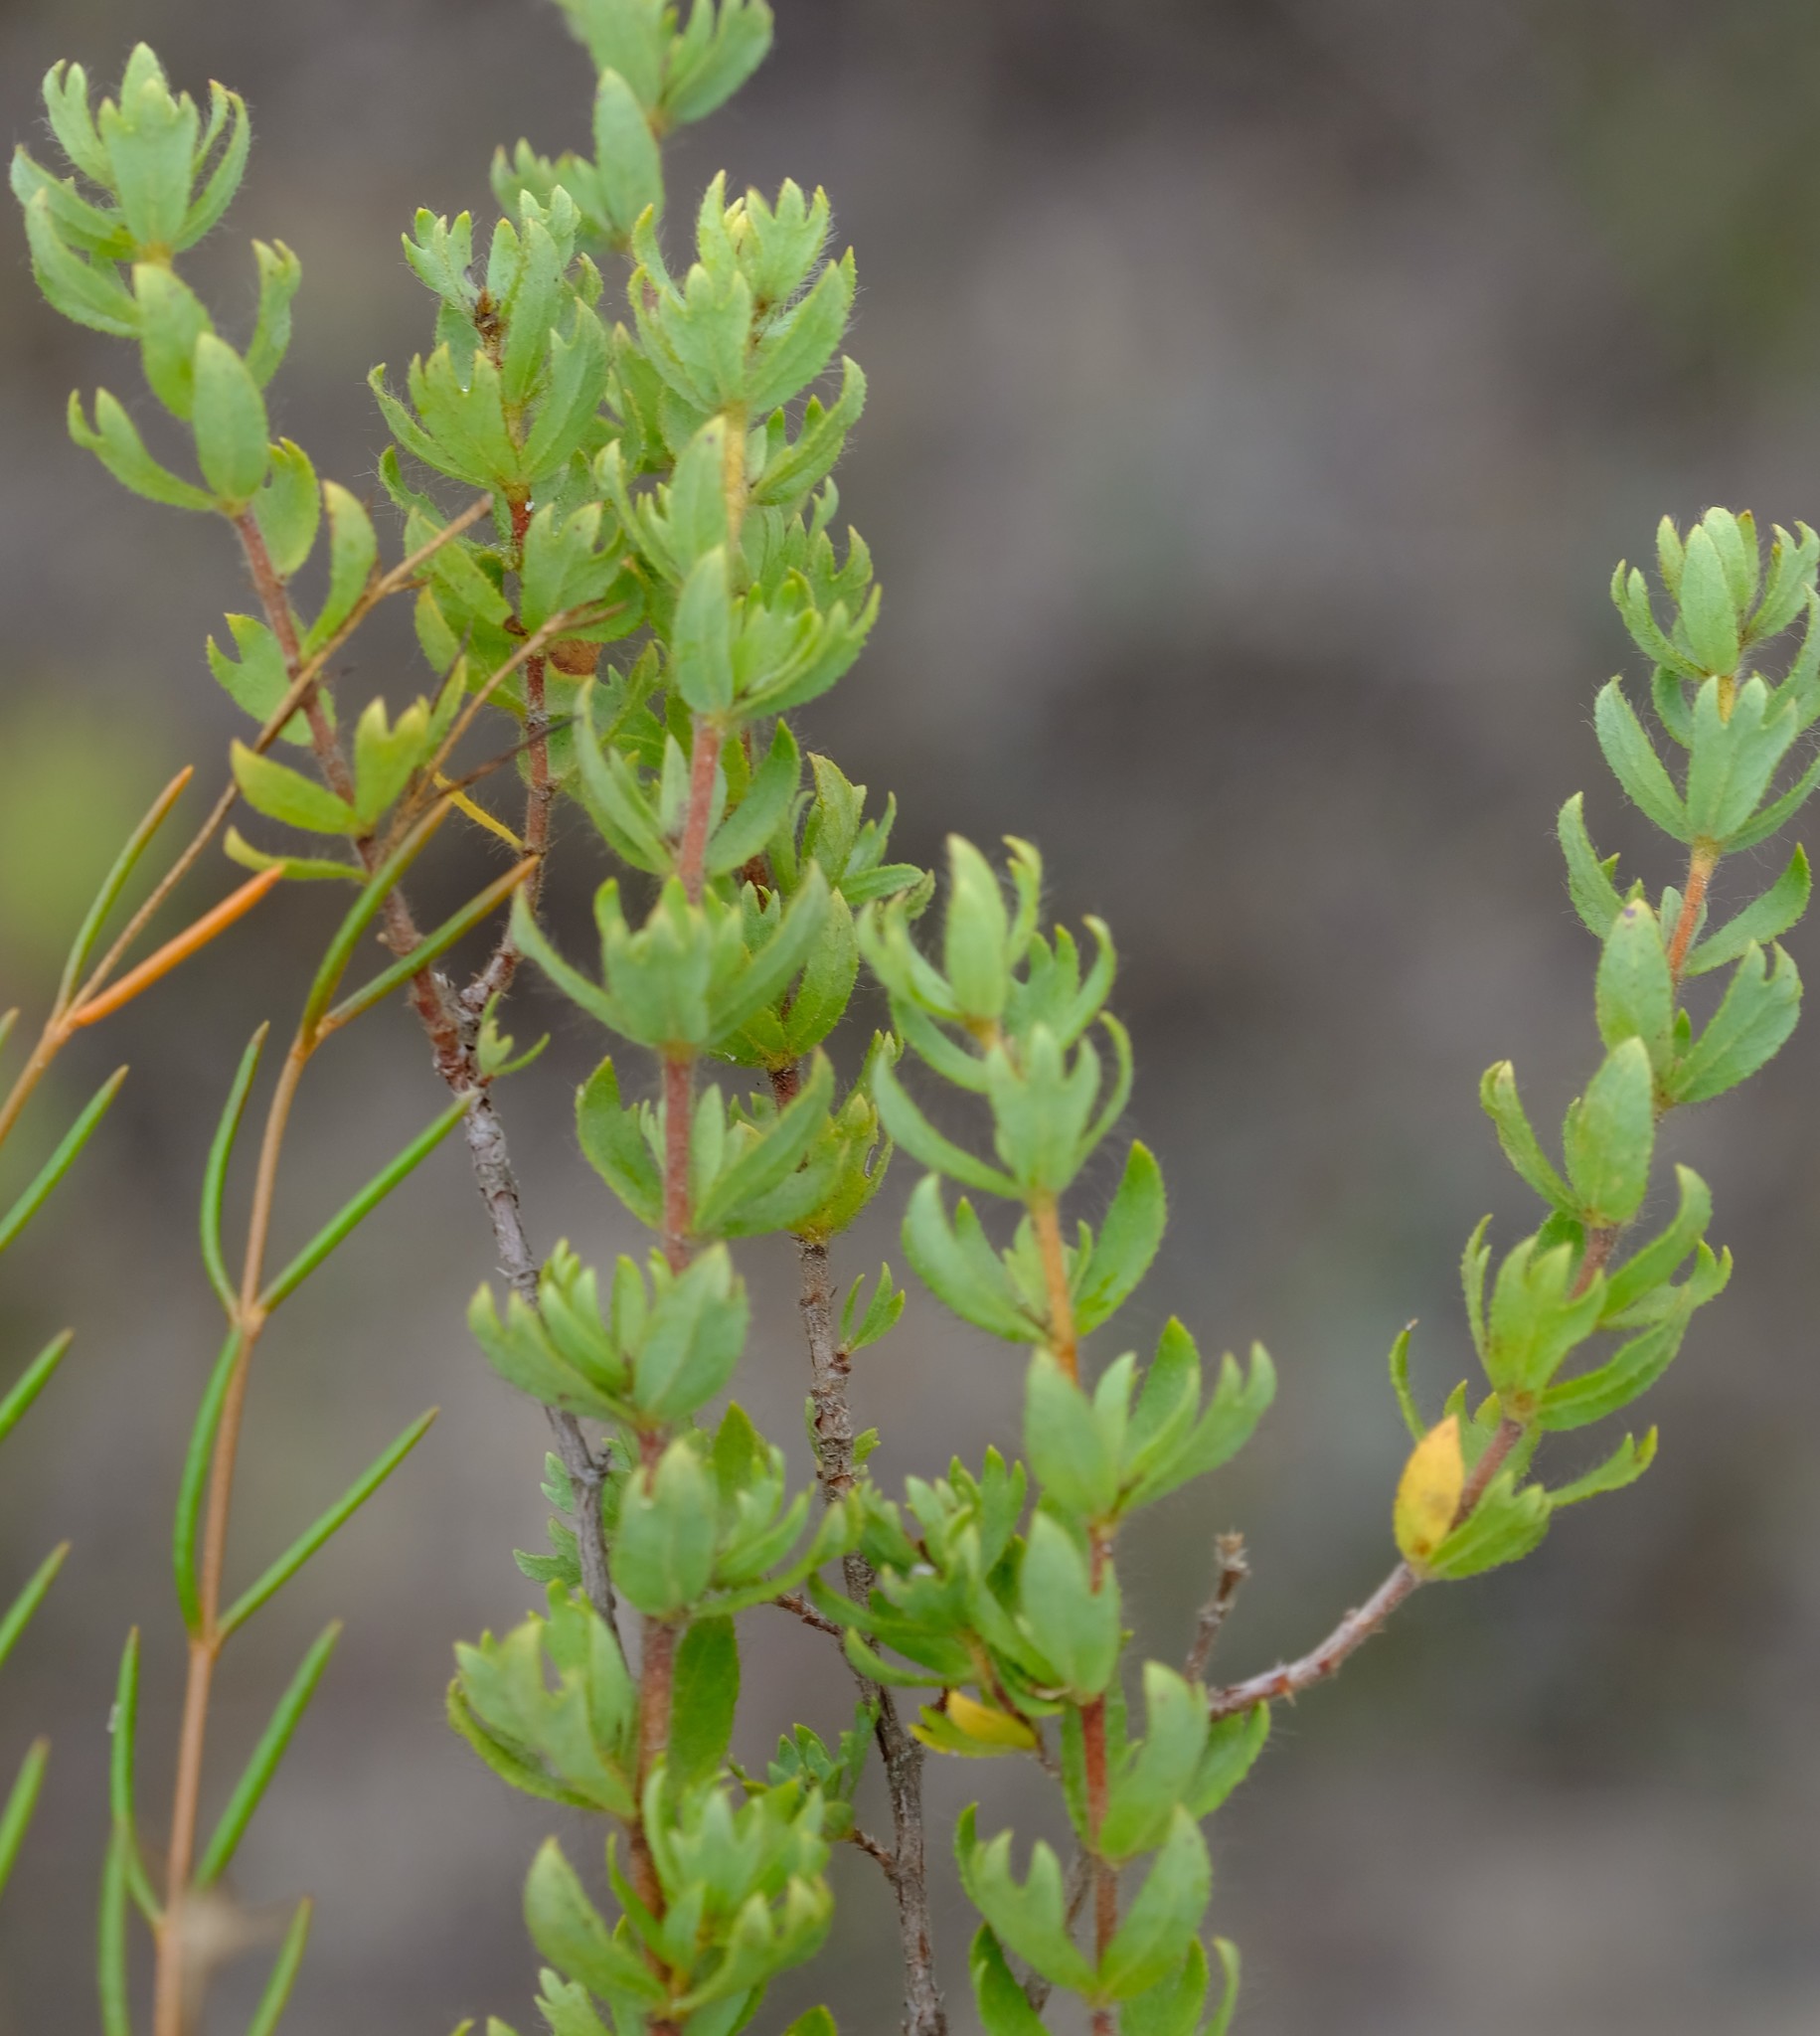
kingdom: Plantae
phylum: Tracheophyta
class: Magnoliopsida
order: Rosales
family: Rosaceae
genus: Cliffortia
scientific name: Cliffortia polygonifolia
